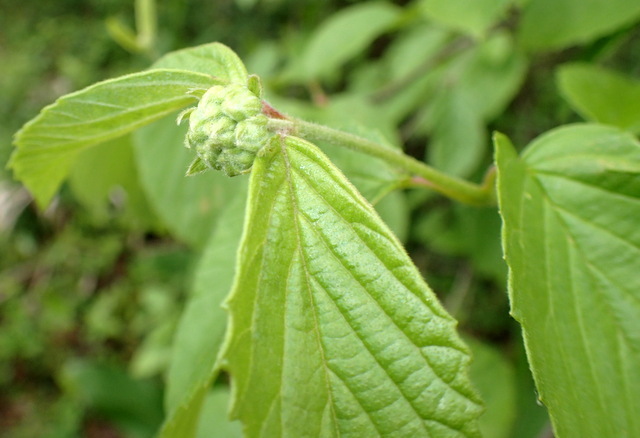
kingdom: Plantae
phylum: Tracheophyta
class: Magnoliopsida
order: Dipsacales
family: Viburnaceae
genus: Viburnum
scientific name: Viburnum scabrellum
